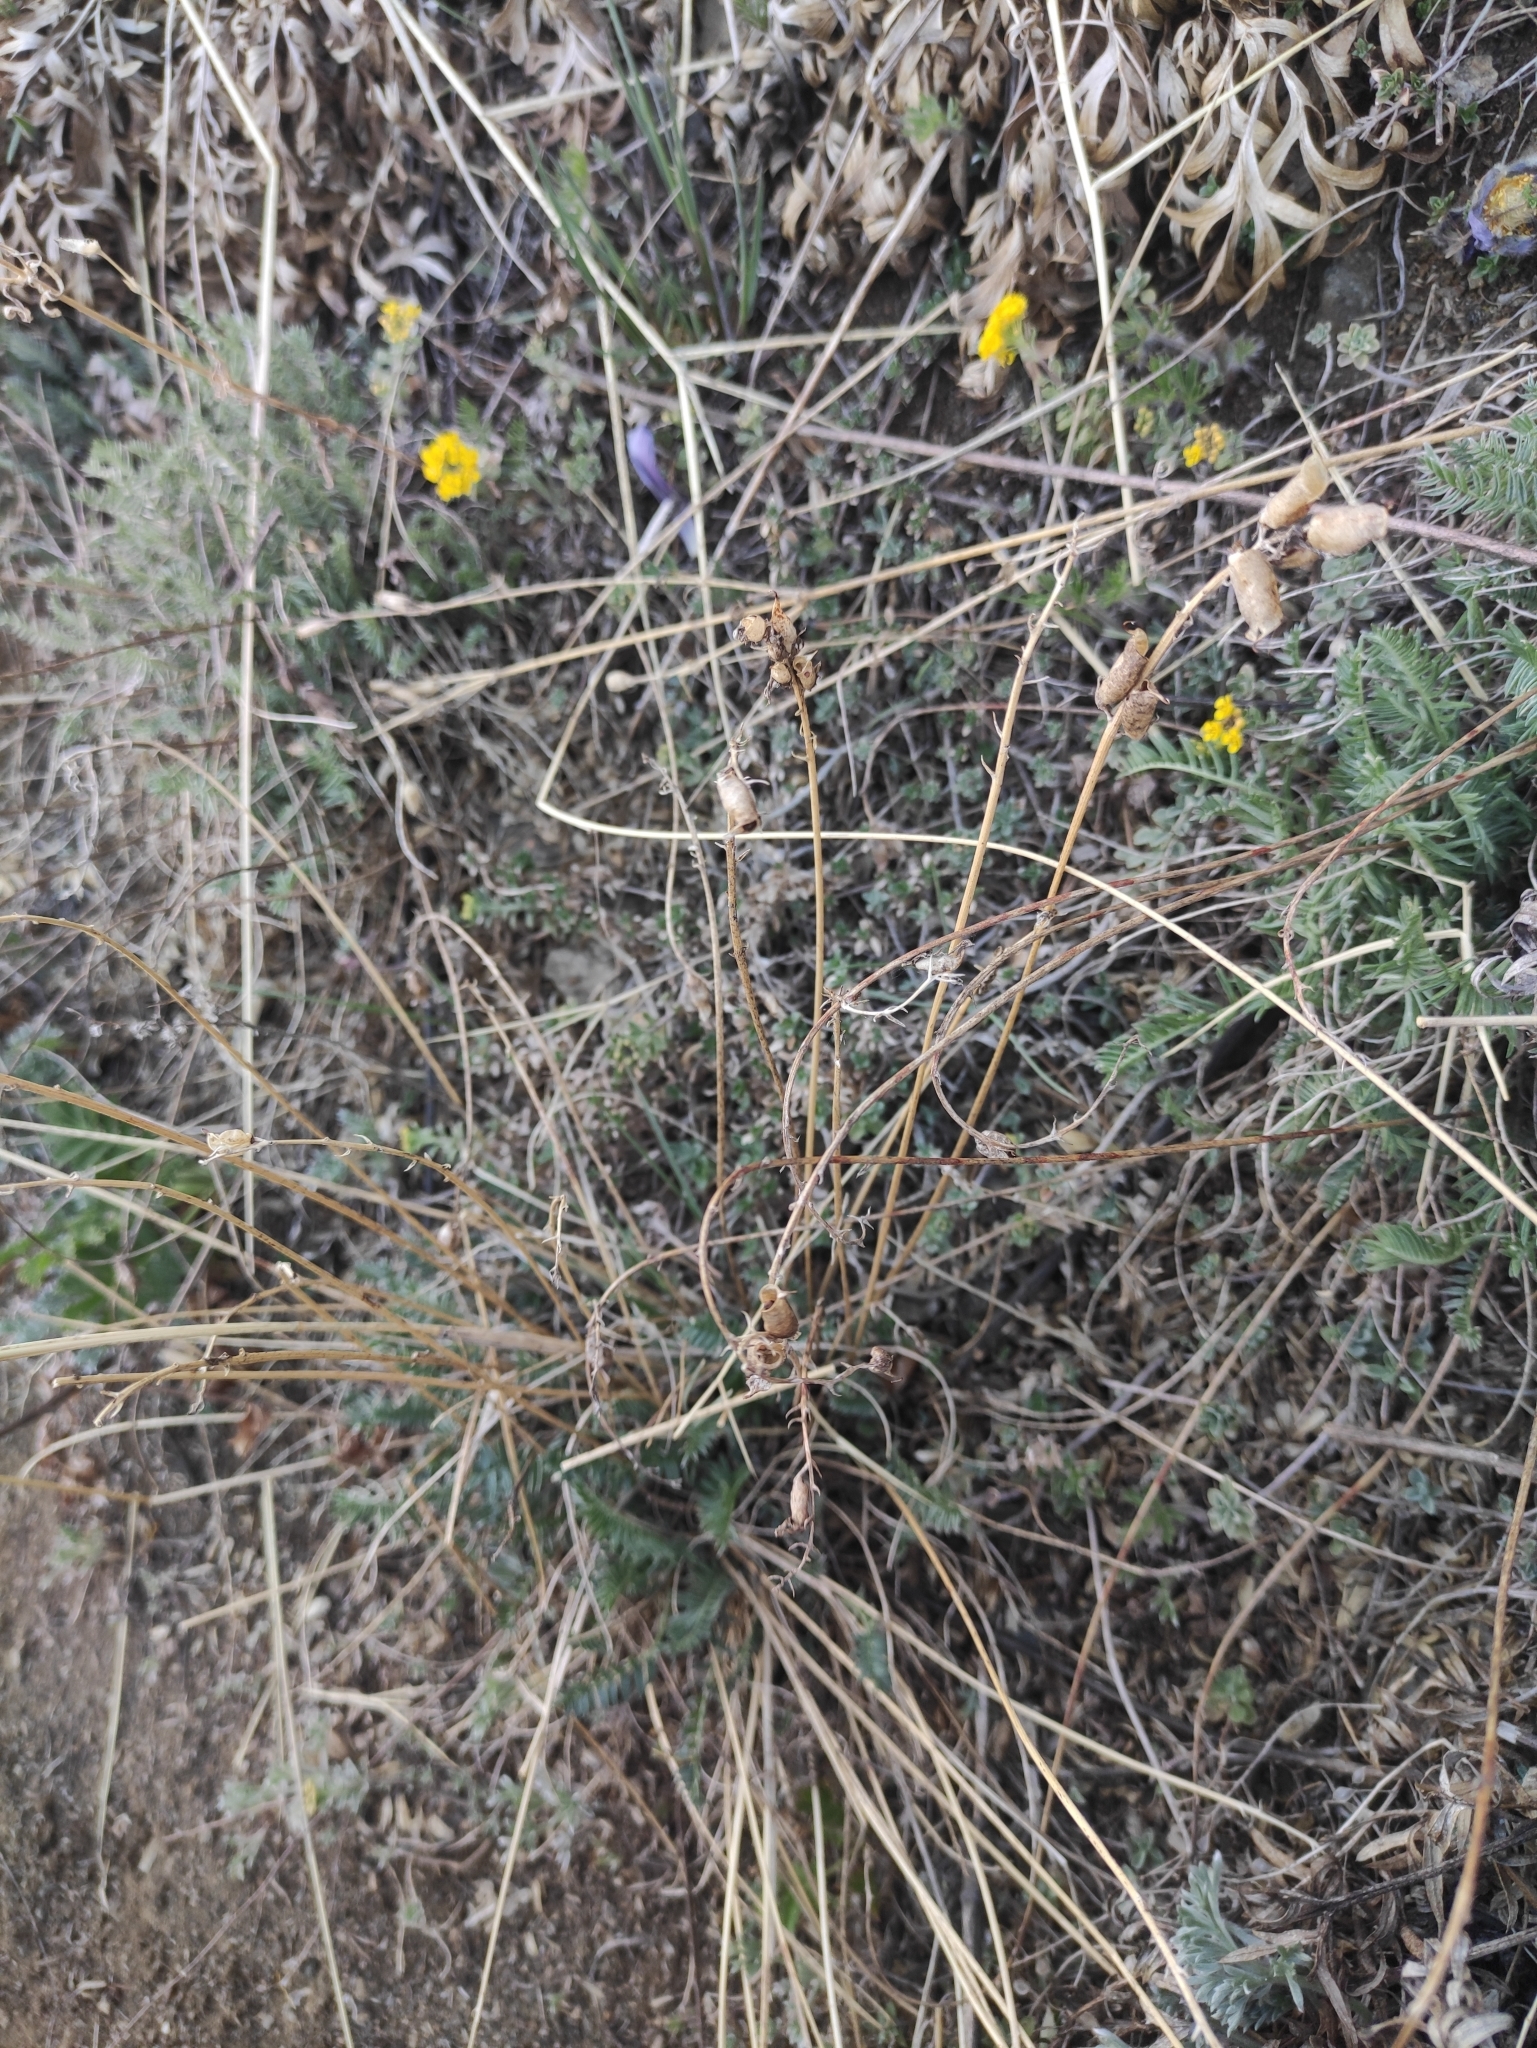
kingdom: Plantae
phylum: Tracheophyta
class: Magnoliopsida
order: Fabales
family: Fabaceae
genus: Oxytropis
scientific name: Oxytropis coerulea
